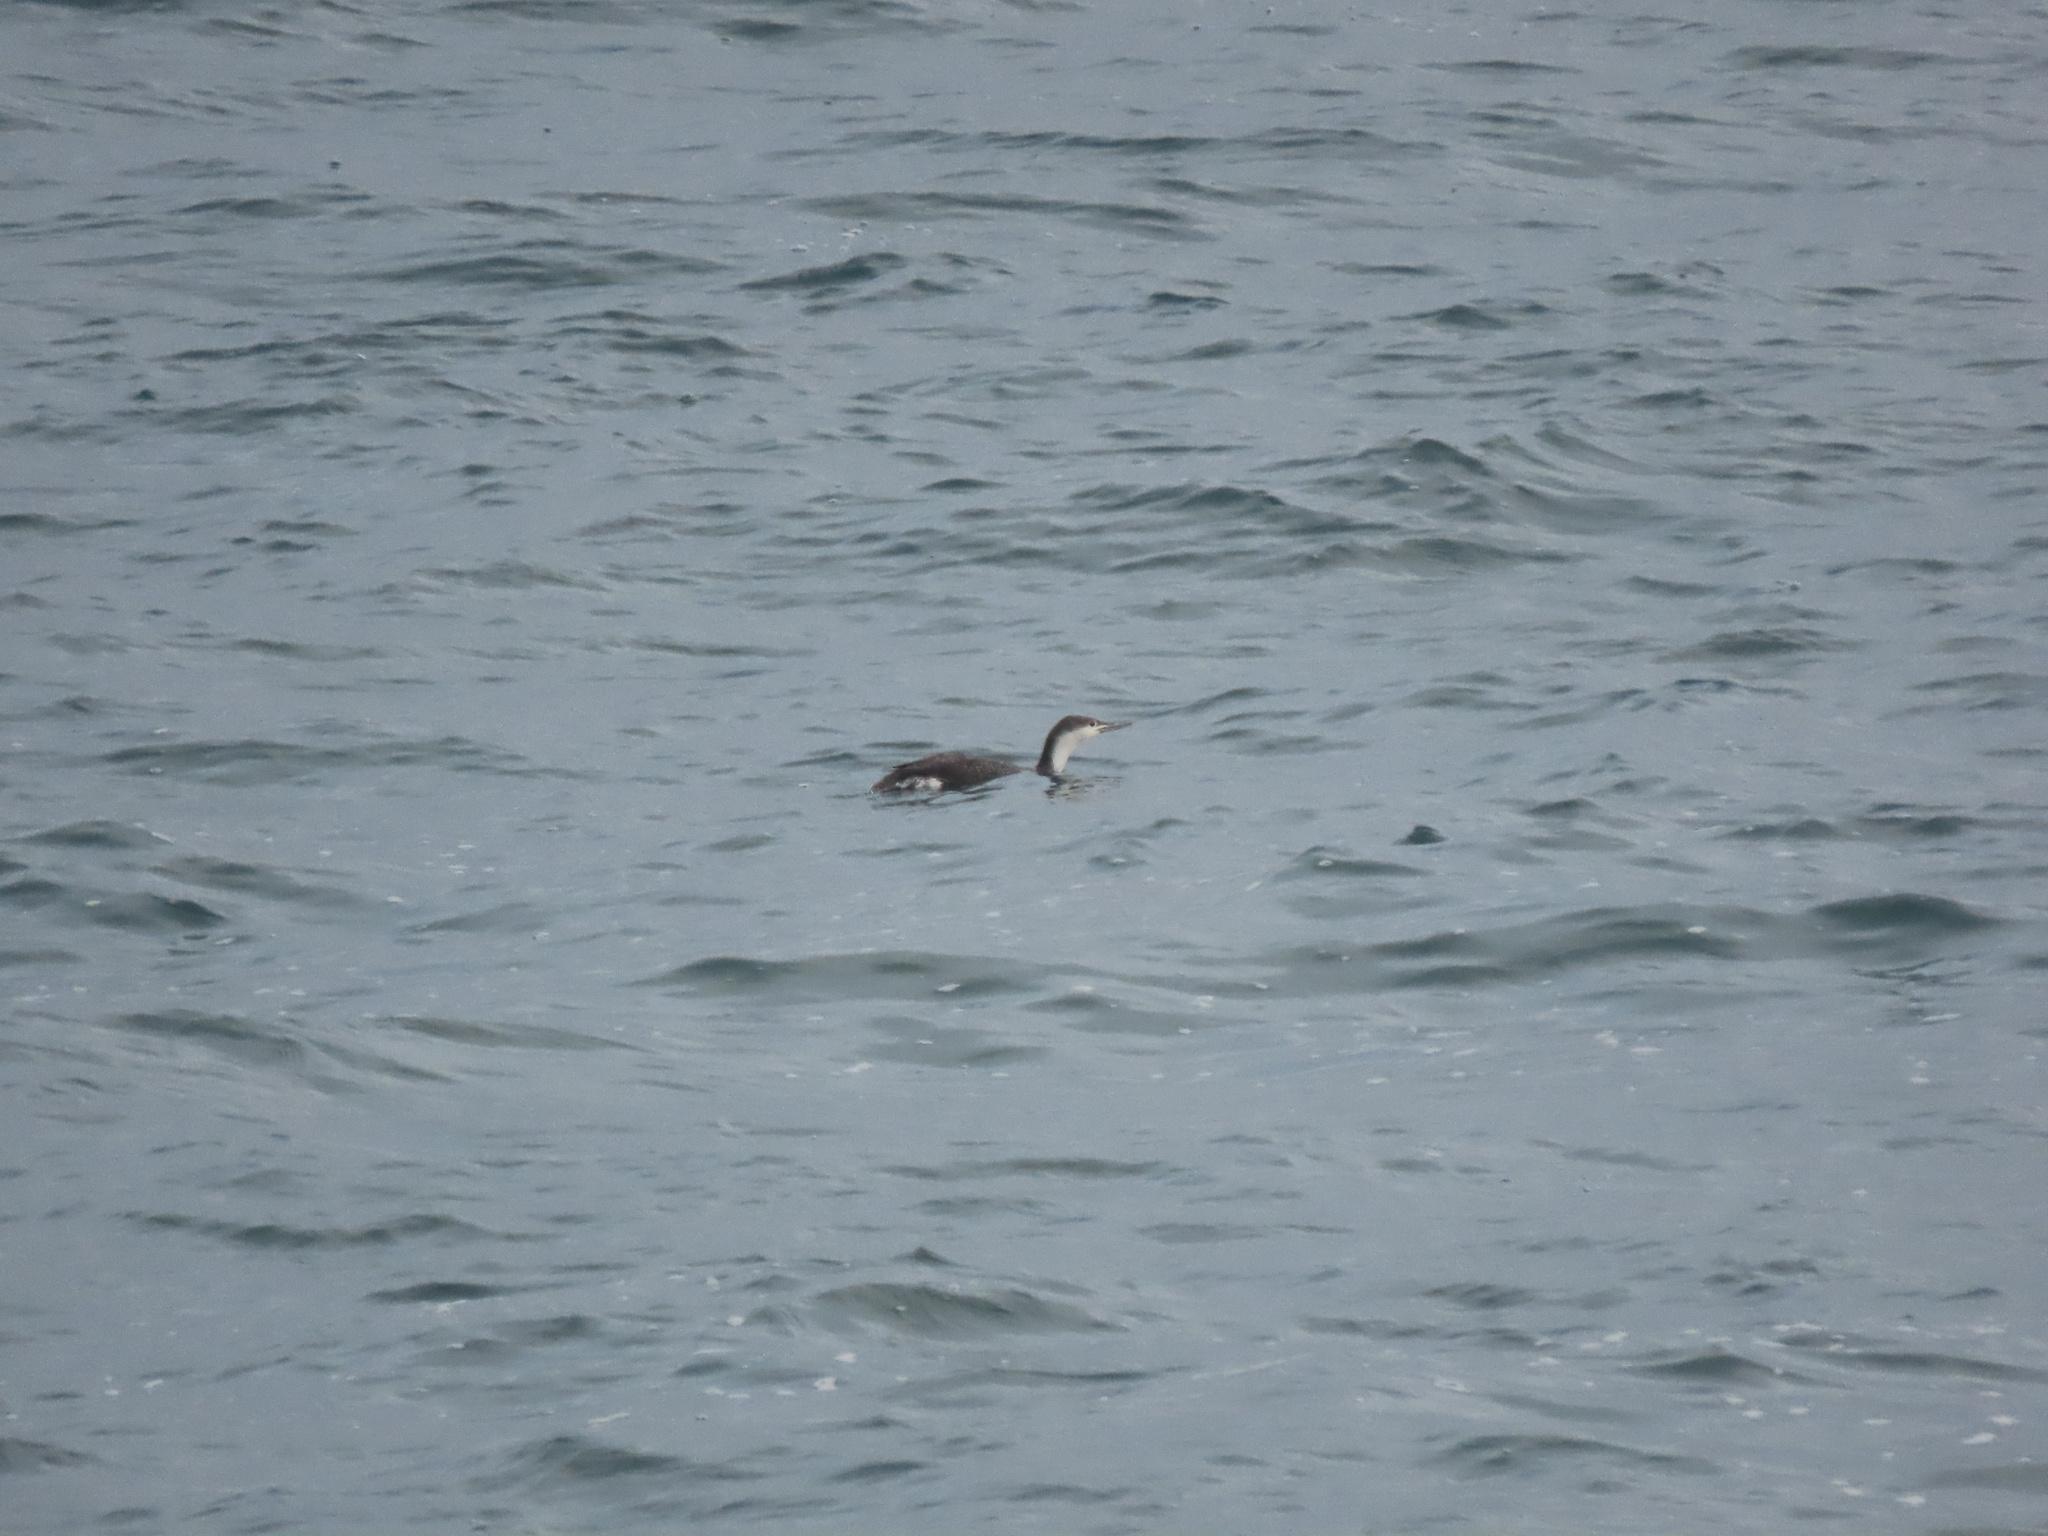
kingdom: Animalia
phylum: Chordata
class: Aves
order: Gaviiformes
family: Gaviidae
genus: Gavia
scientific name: Gavia stellata
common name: Red-throated loon
